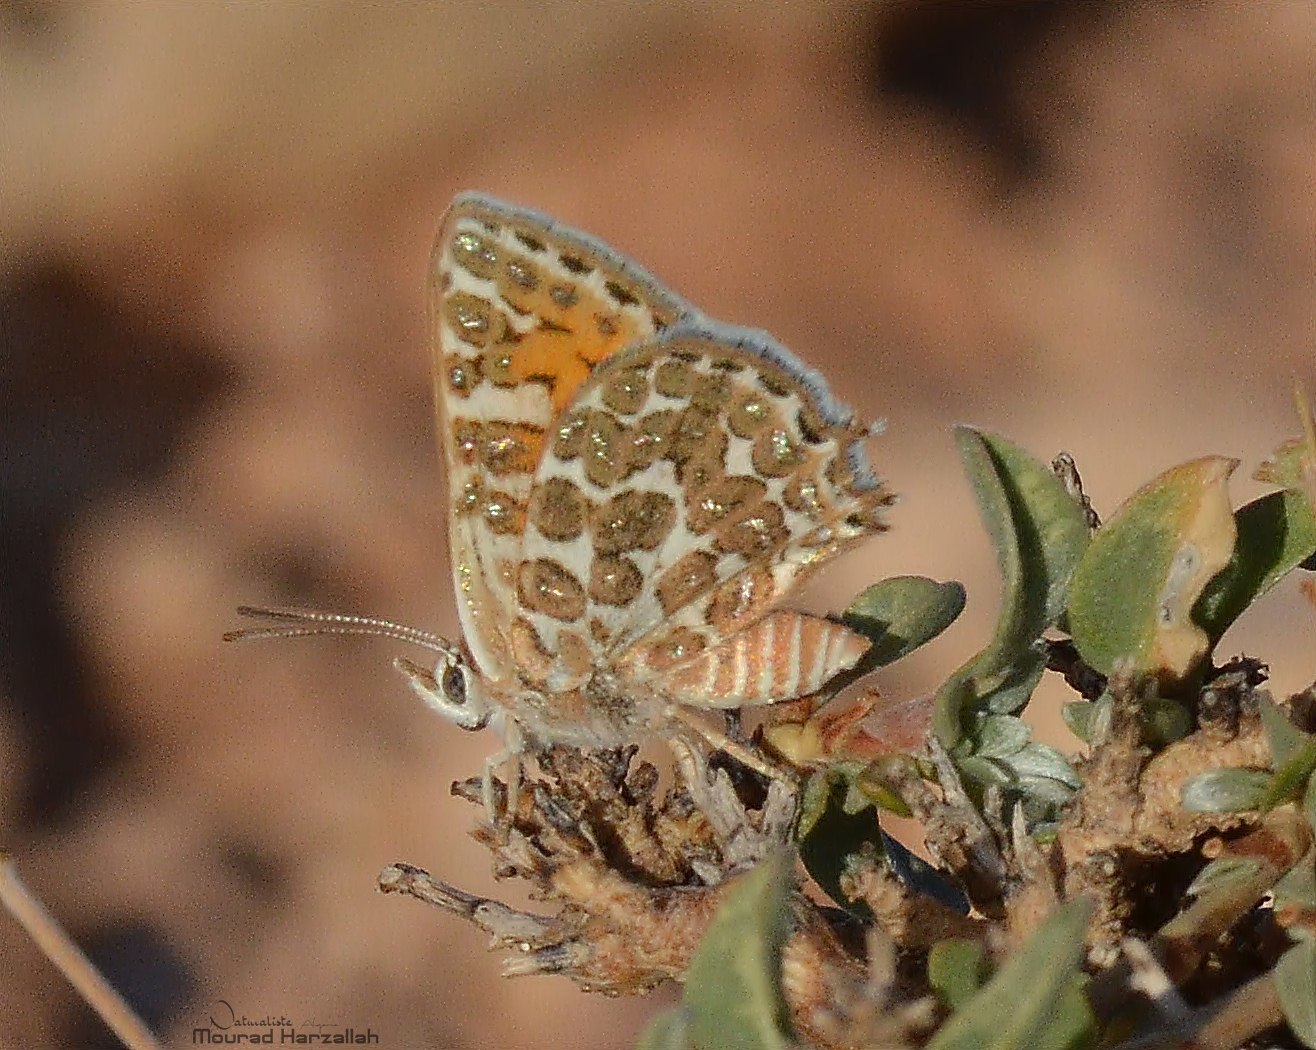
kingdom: Animalia
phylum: Arthropoda
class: Insecta
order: Lepidoptera
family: Lycaenidae
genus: Cigaritis
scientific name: Cigaritis zohra
